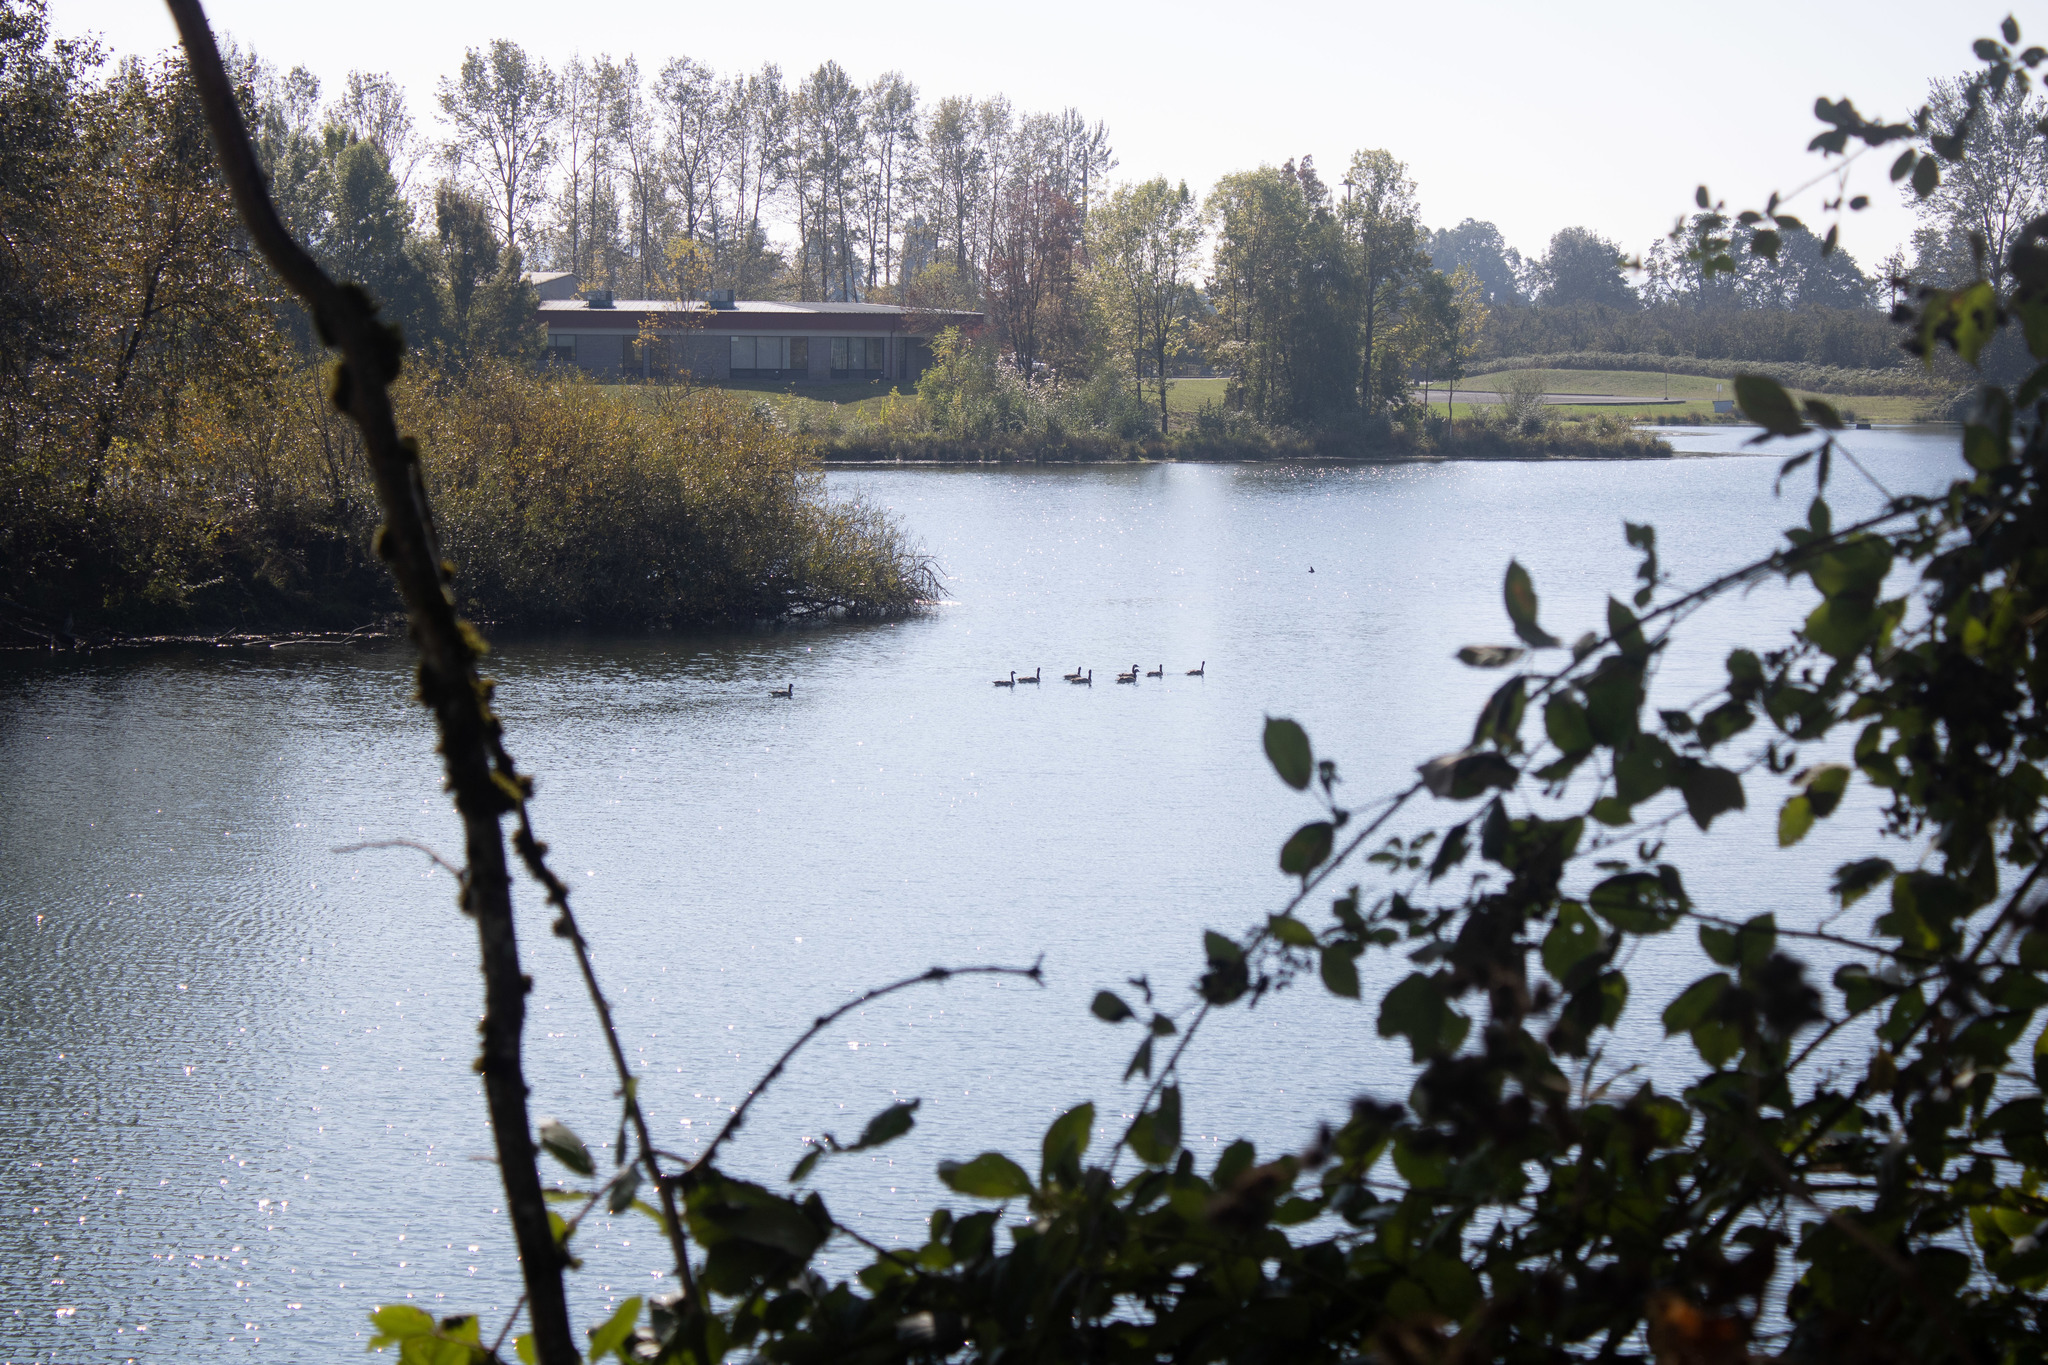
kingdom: Animalia
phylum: Chordata
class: Aves
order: Anseriformes
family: Anatidae
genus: Branta
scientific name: Branta canadensis
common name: Canada goose
